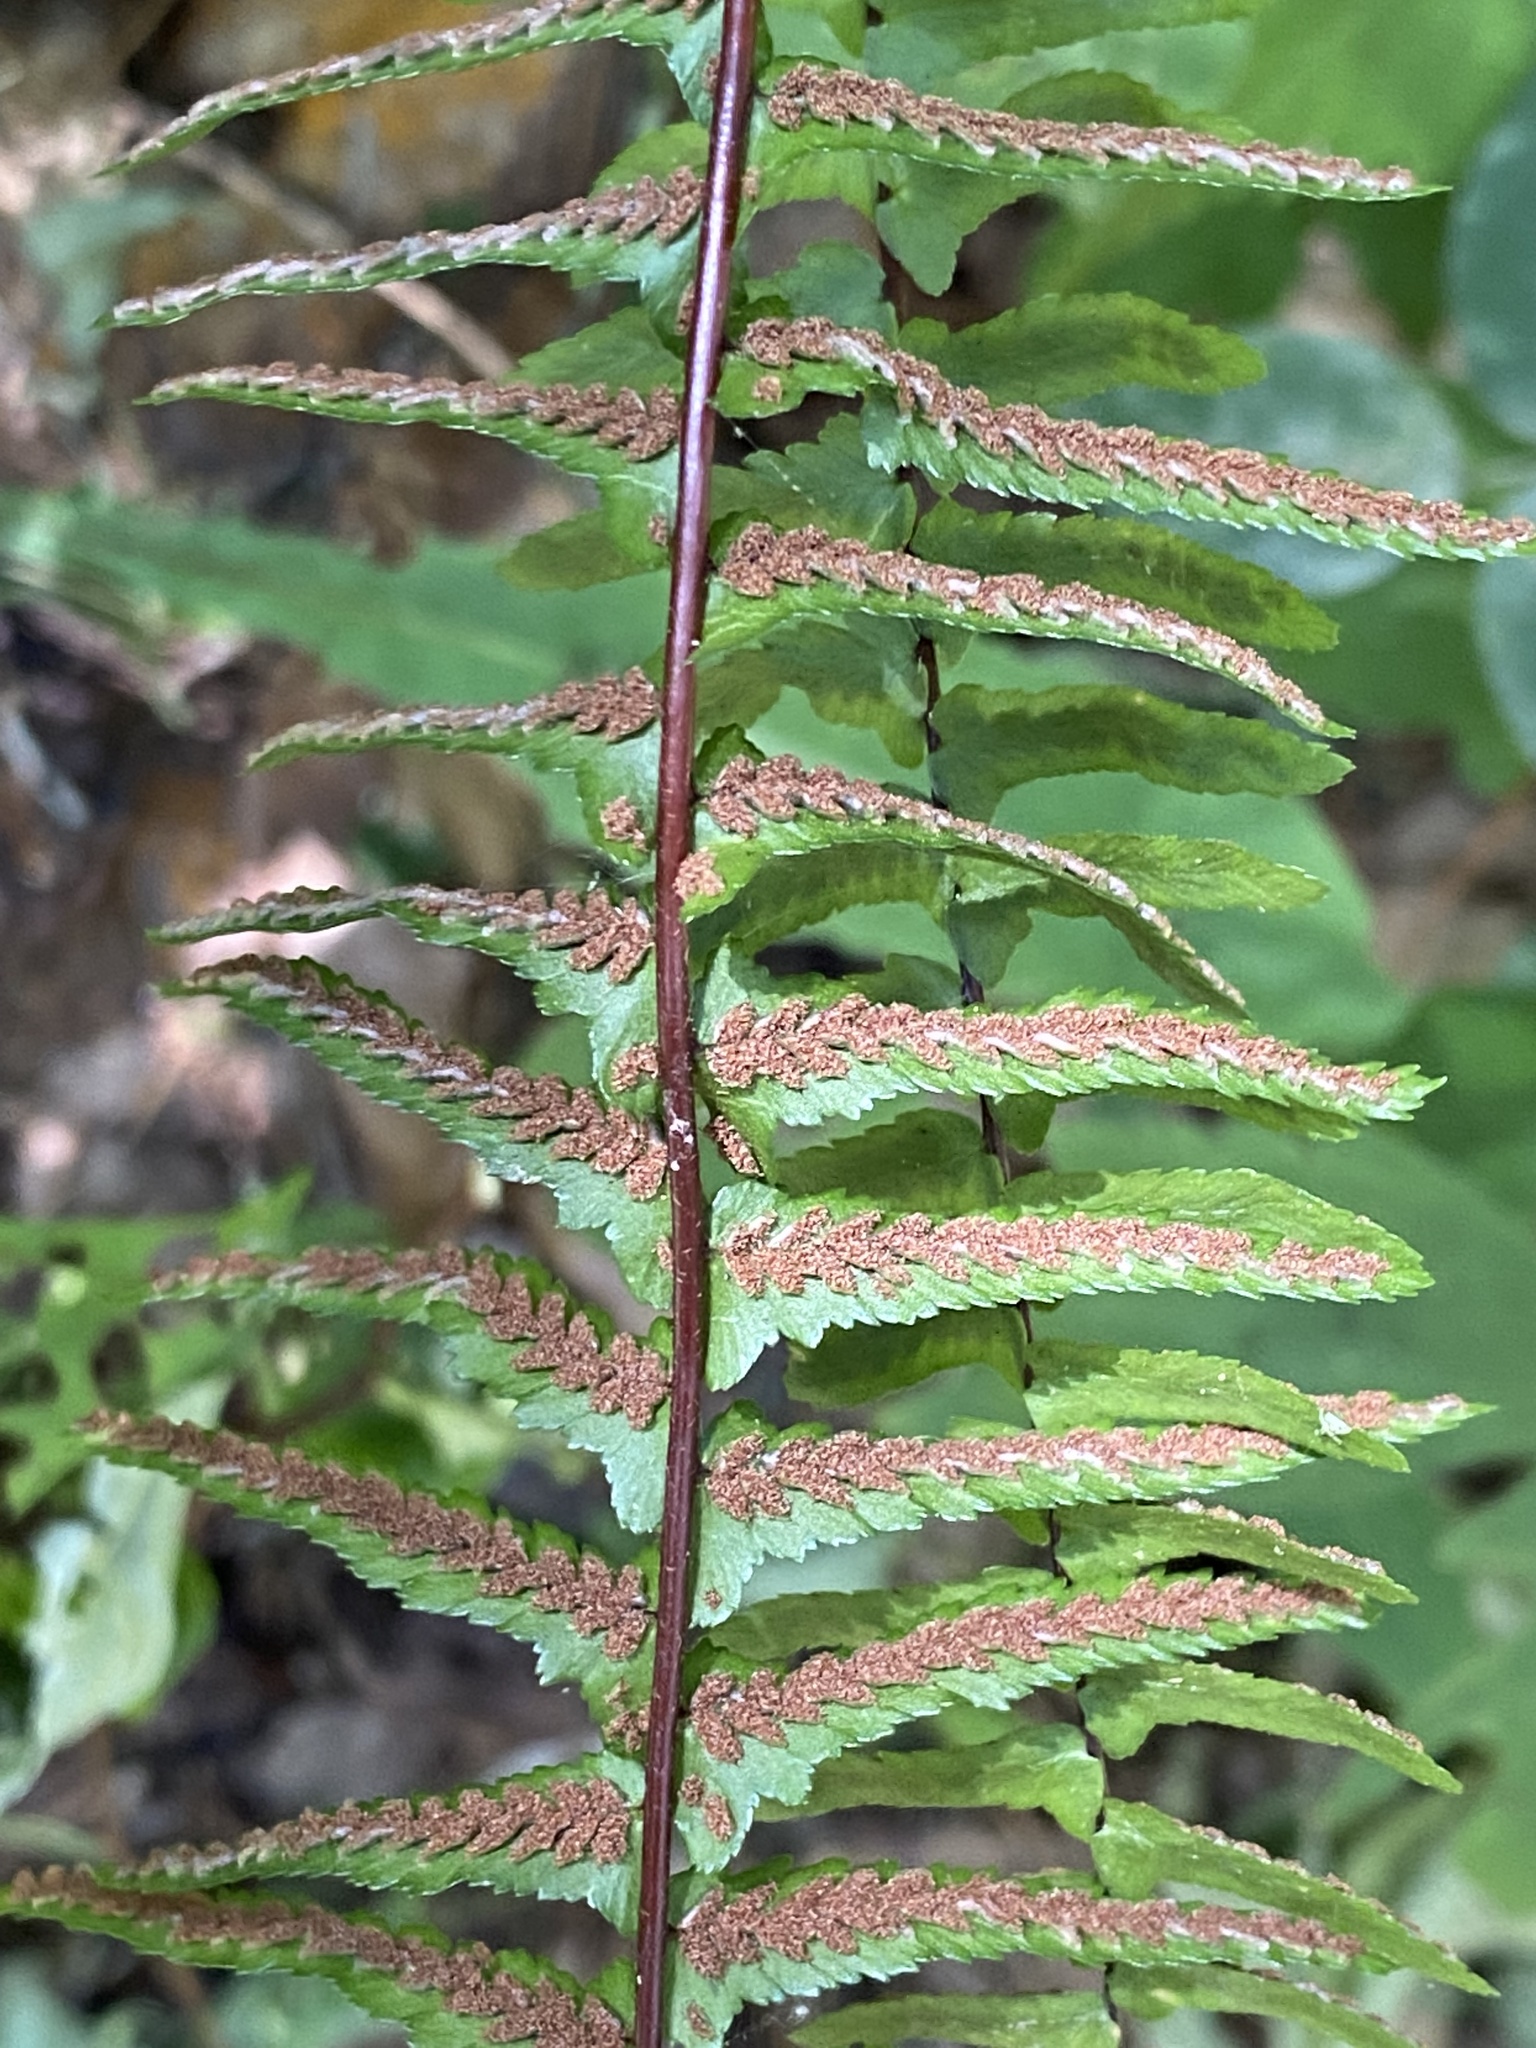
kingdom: Plantae
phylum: Tracheophyta
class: Polypodiopsida
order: Polypodiales
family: Aspleniaceae
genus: Asplenium
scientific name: Asplenium platyneuron
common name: Ebony spleenwort
